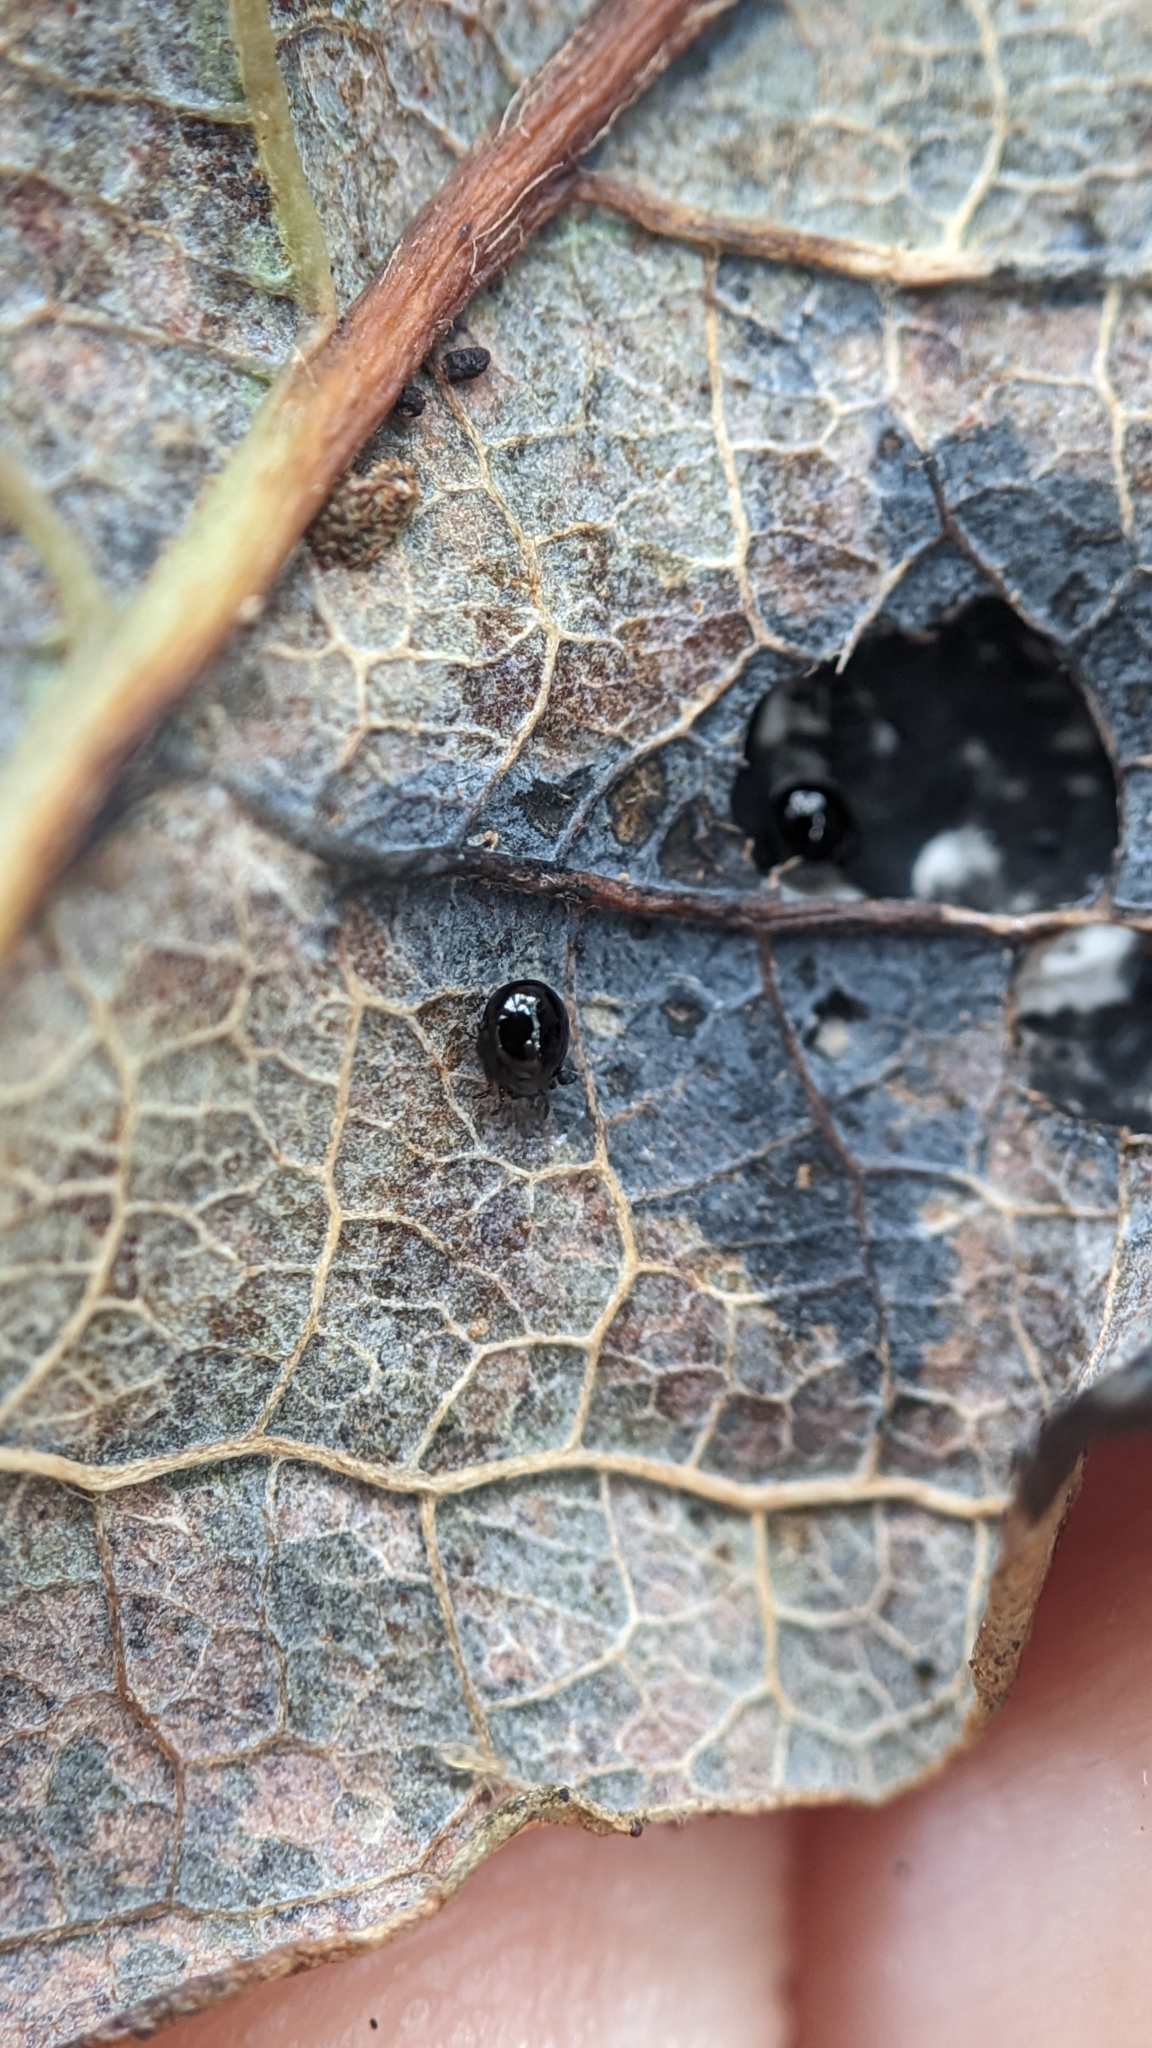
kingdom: Fungi
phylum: Ascomycota
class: Leotiomycetes
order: Rhytismatales
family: Rhytismataceae
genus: Rhytisma
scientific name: Rhytisma salicinum
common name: Willow tarspot
